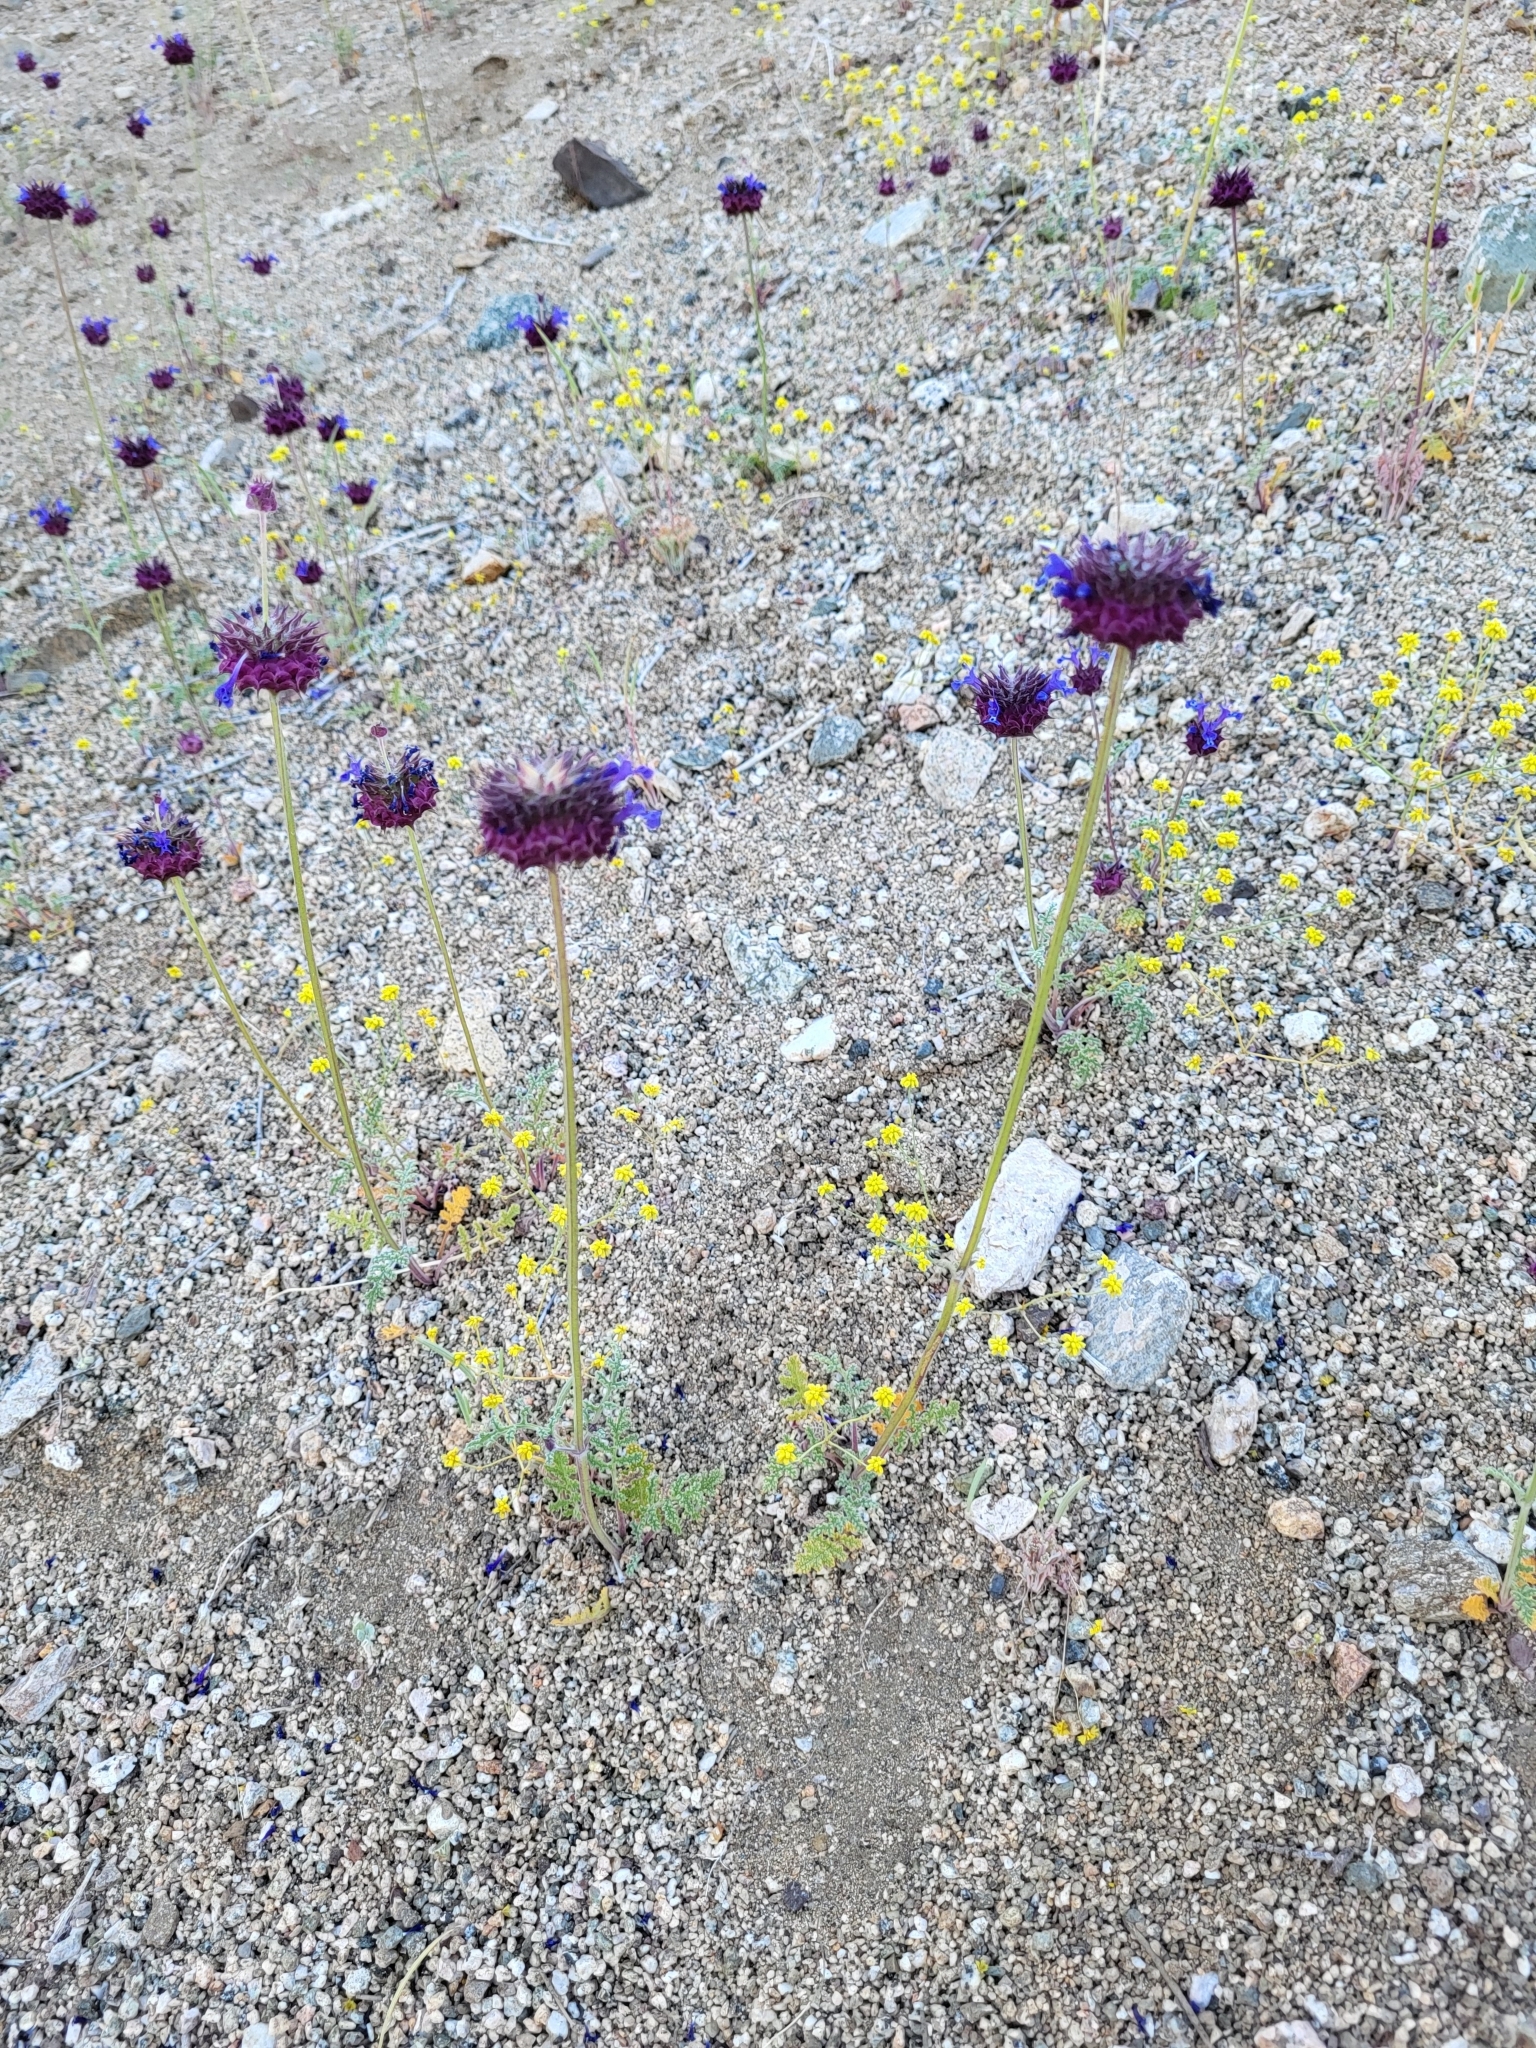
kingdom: Plantae
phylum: Tracheophyta
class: Magnoliopsida
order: Lamiales
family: Lamiaceae
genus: Salvia
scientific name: Salvia columbariae
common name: Chia
